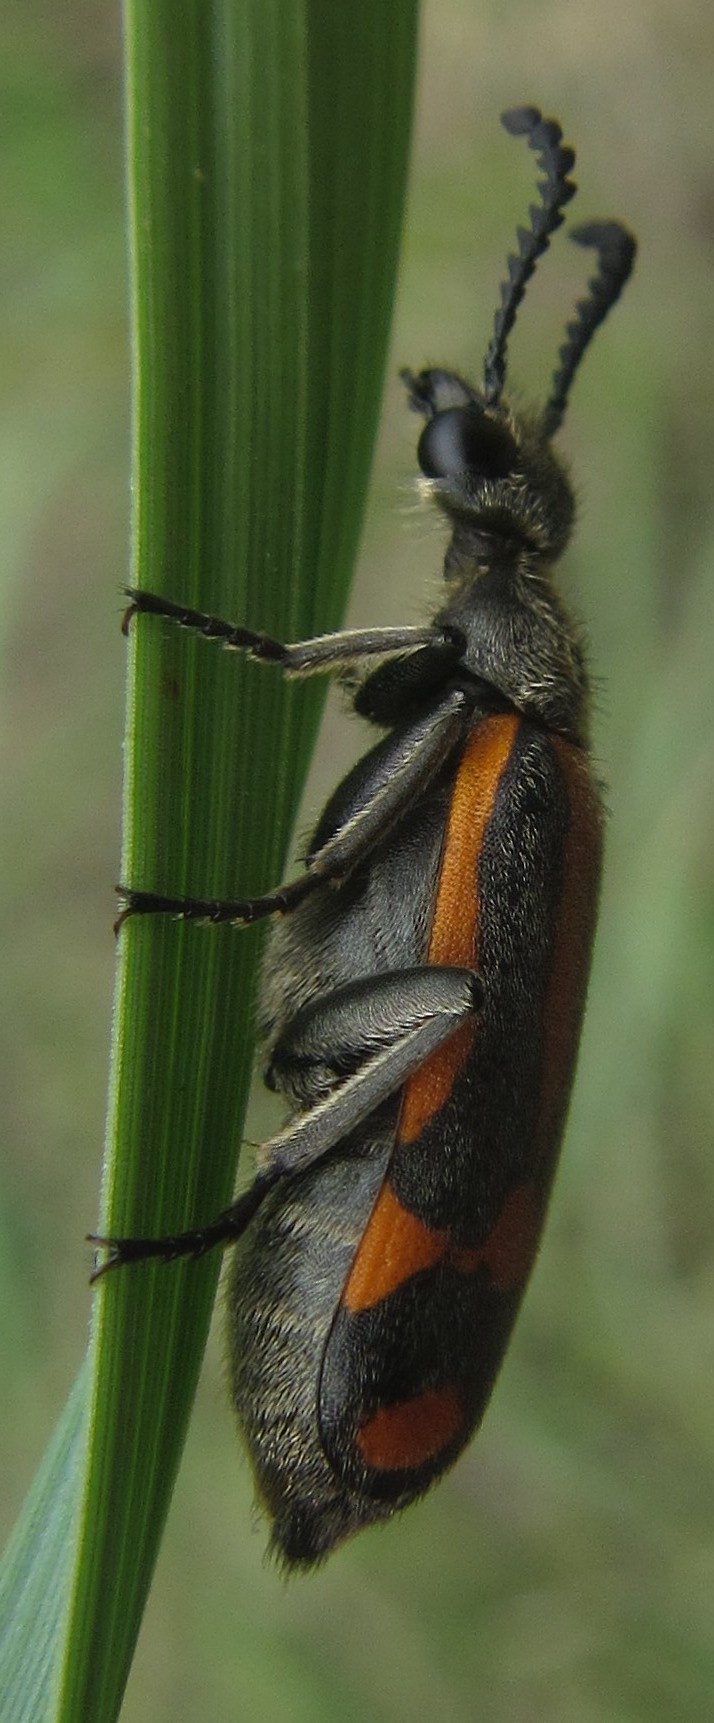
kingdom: Animalia
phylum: Arthropoda
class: Insecta
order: Coleoptera
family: Meloidae
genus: Ceroctis
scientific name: Ceroctis
